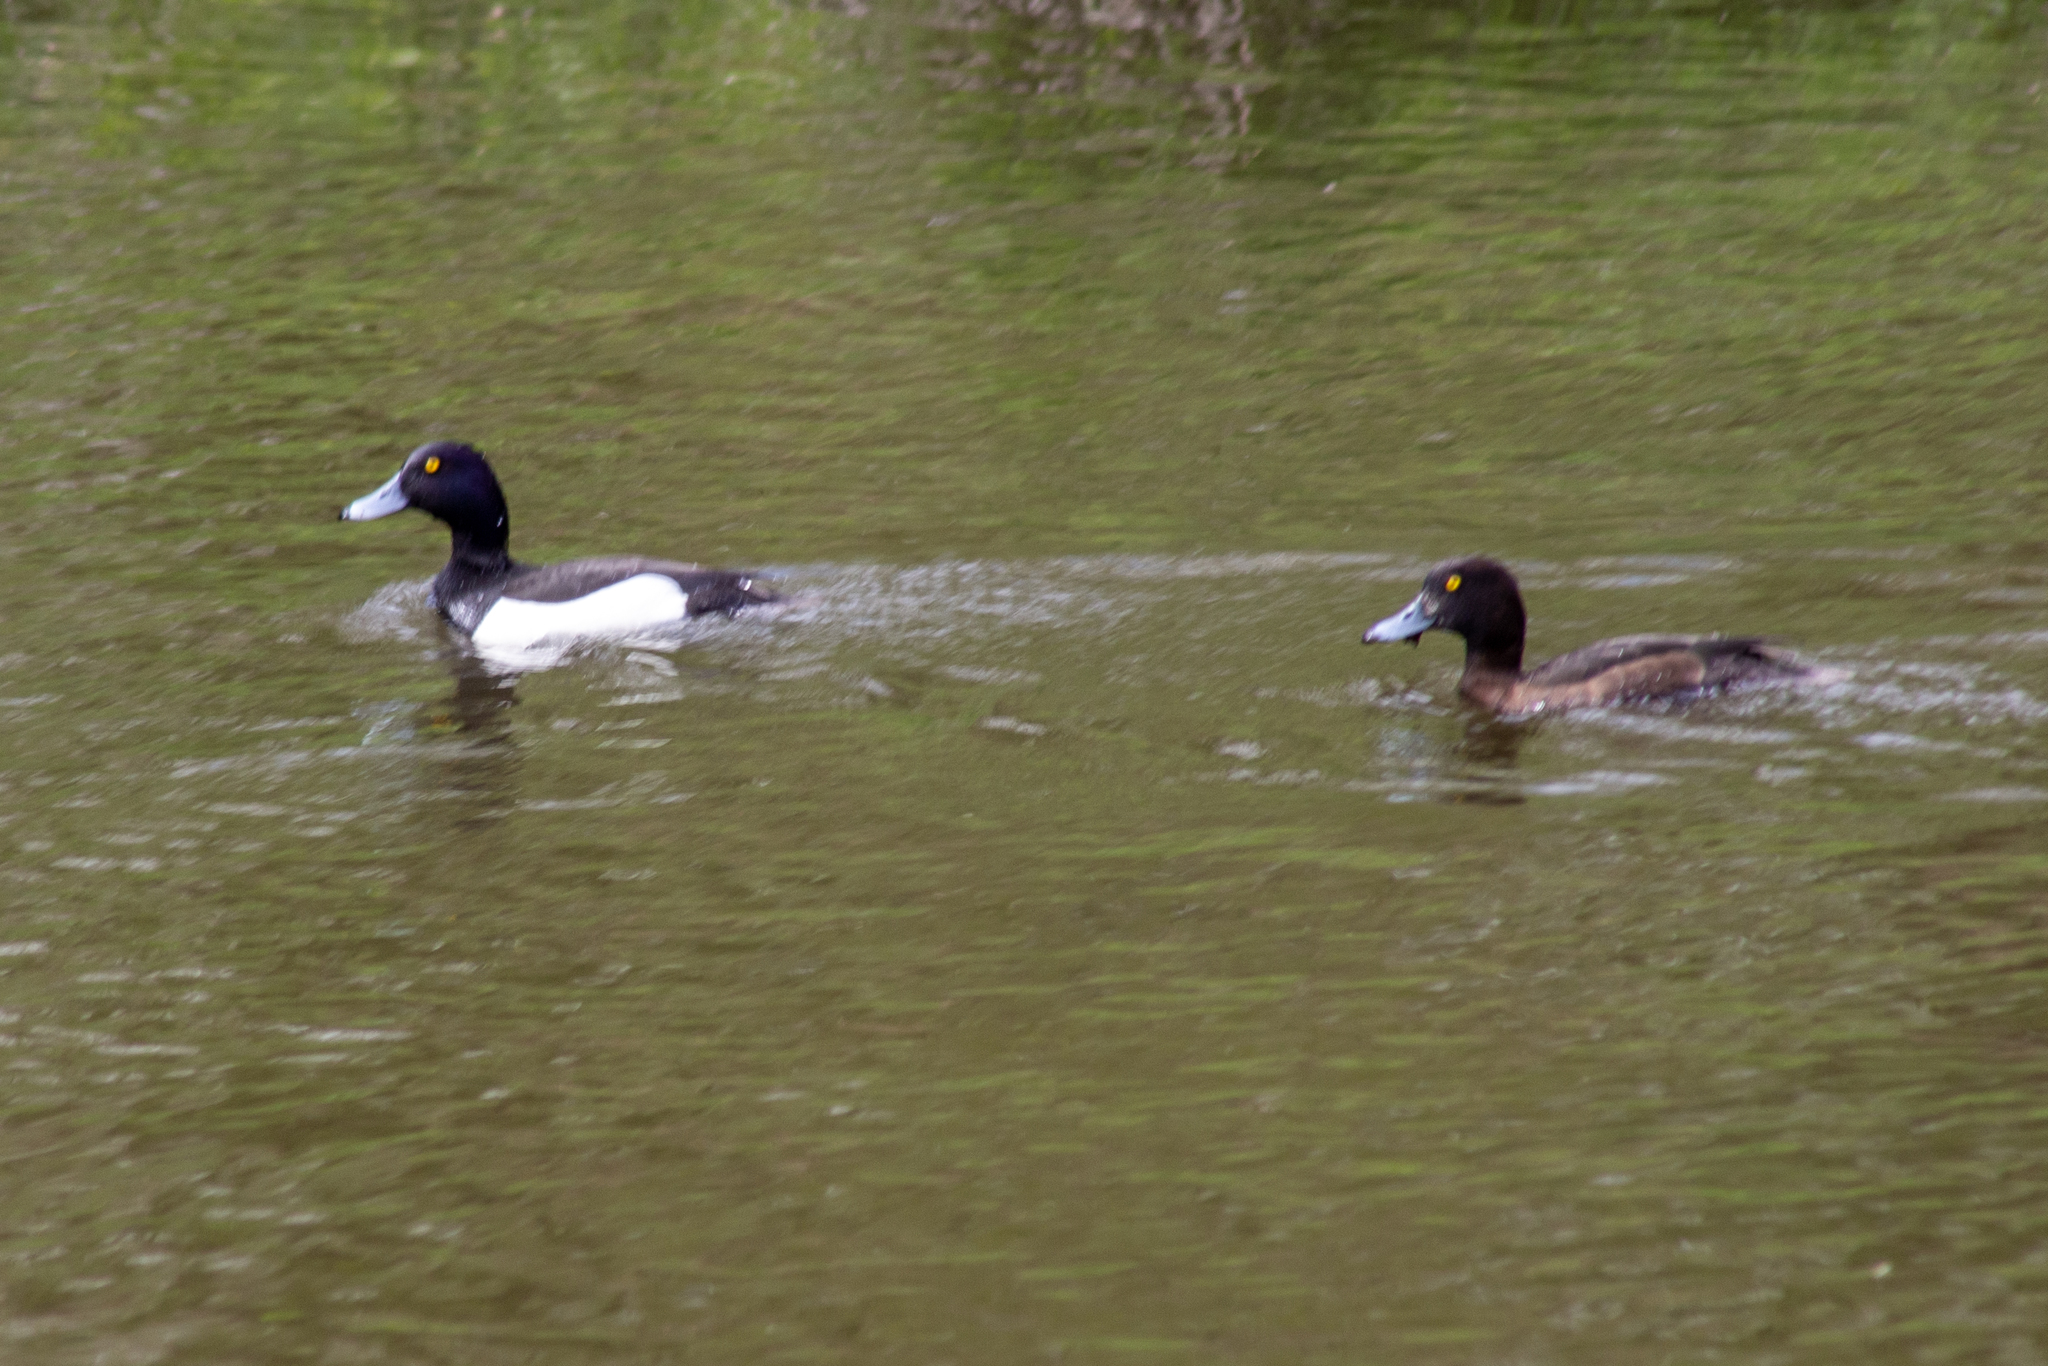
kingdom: Animalia
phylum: Chordata
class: Aves
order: Anseriformes
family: Anatidae
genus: Aythya
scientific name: Aythya fuligula
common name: Tufted duck
